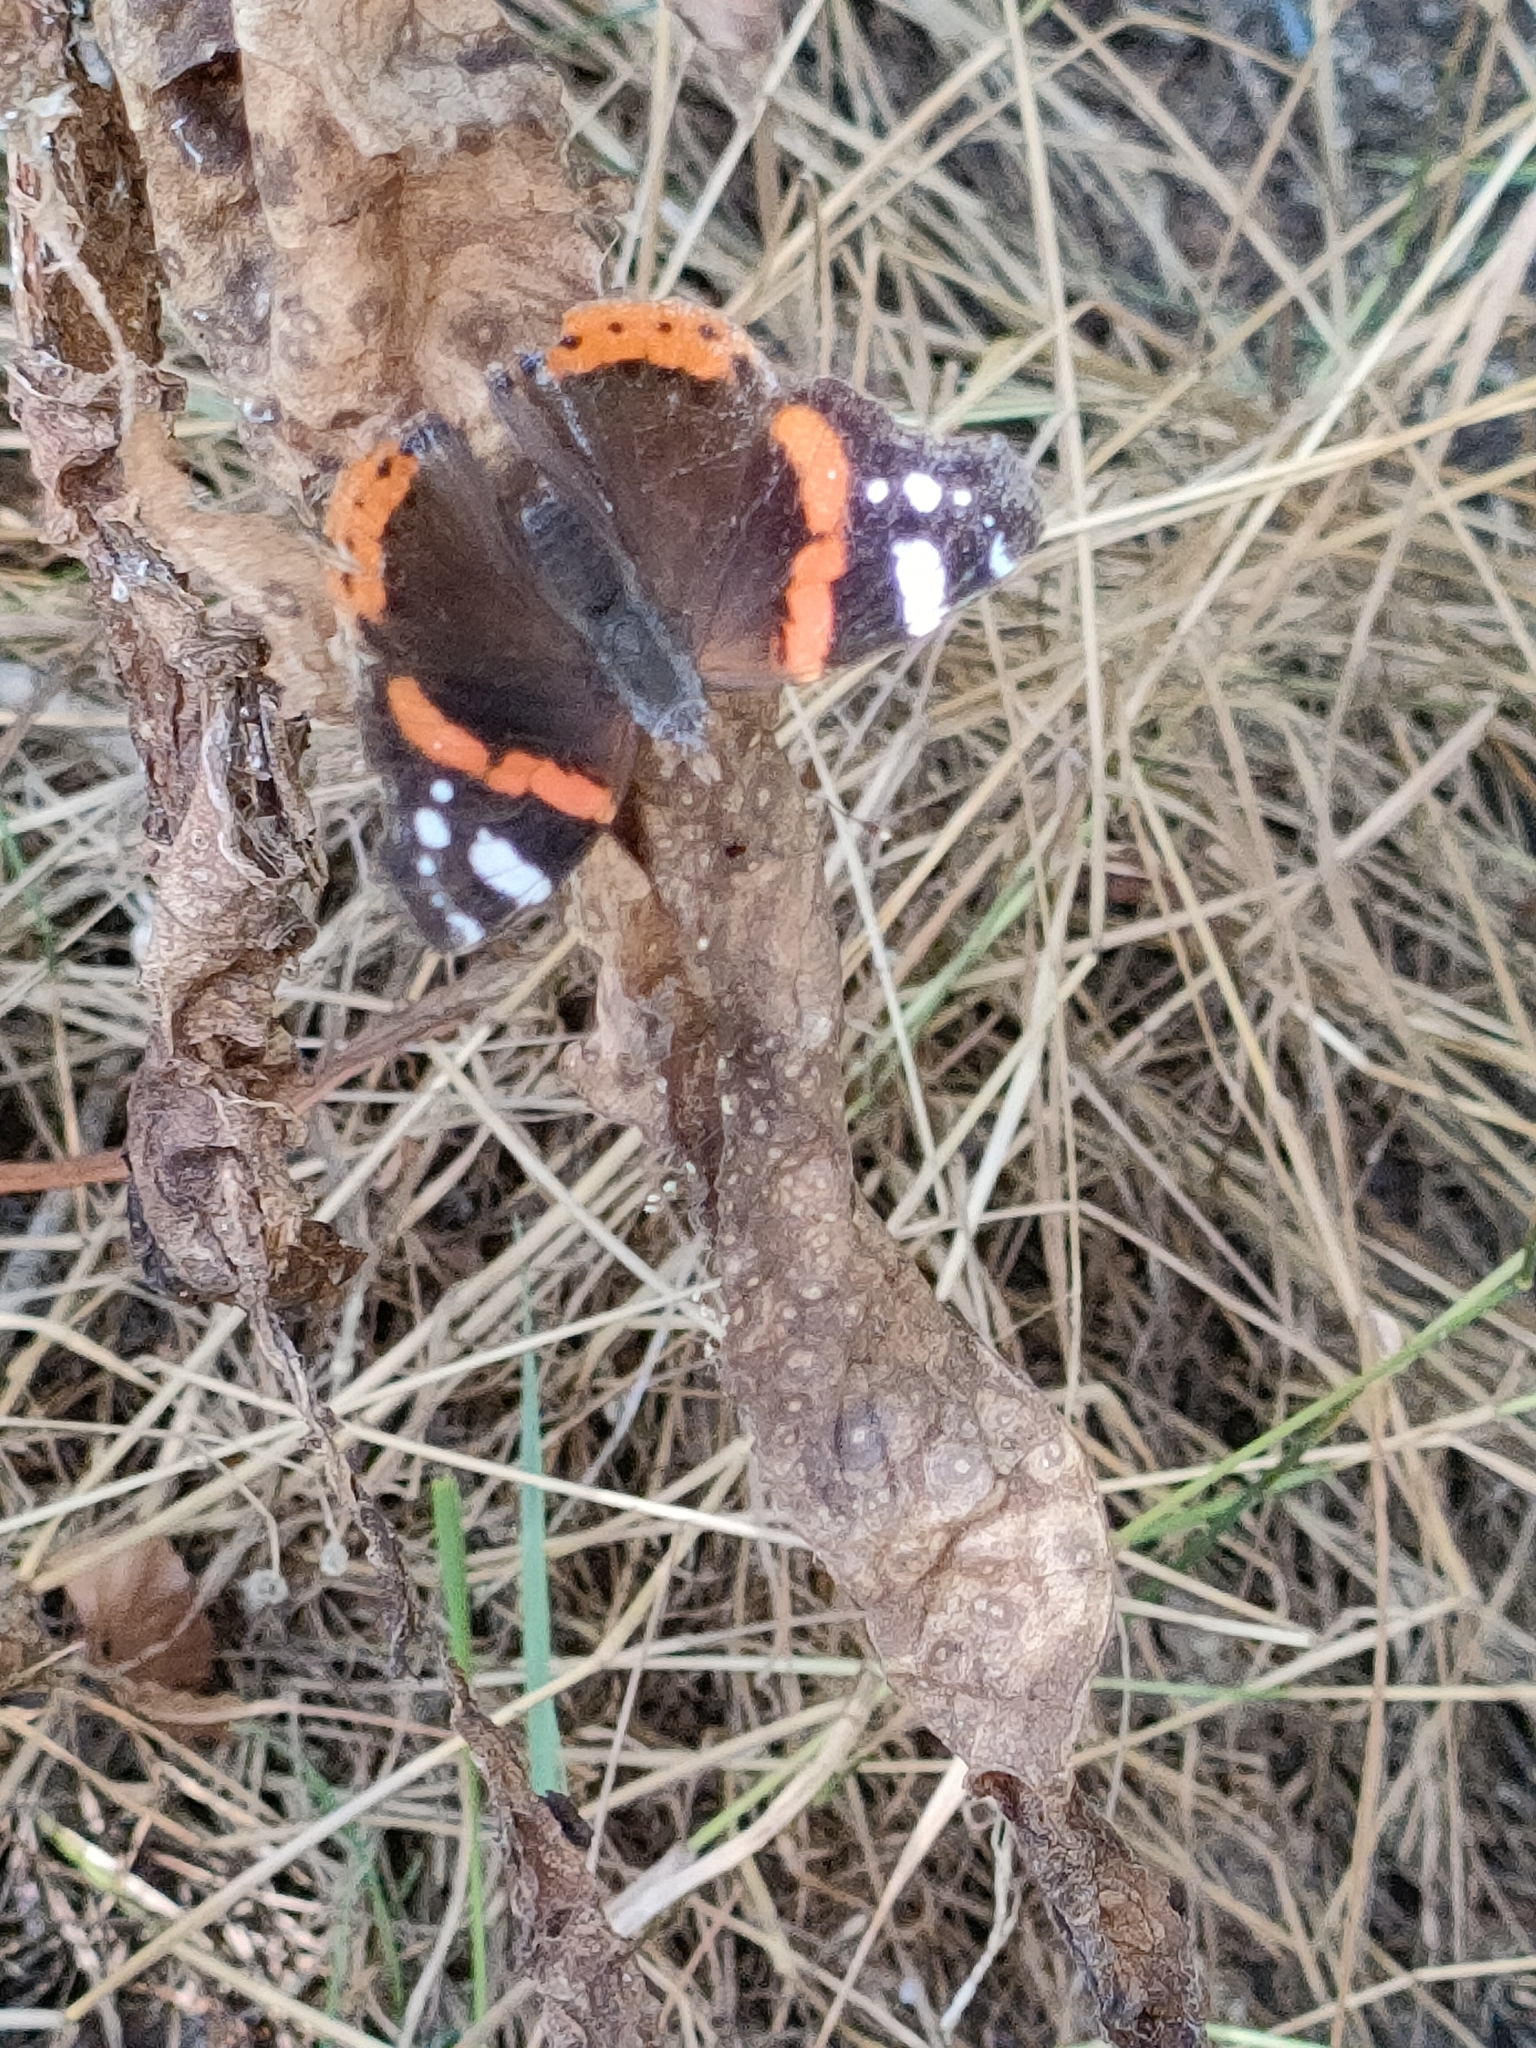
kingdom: Animalia
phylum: Arthropoda
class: Insecta
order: Lepidoptera
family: Nymphalidae
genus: Vanessa
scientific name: Vanessa atalanta
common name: Red admiral
